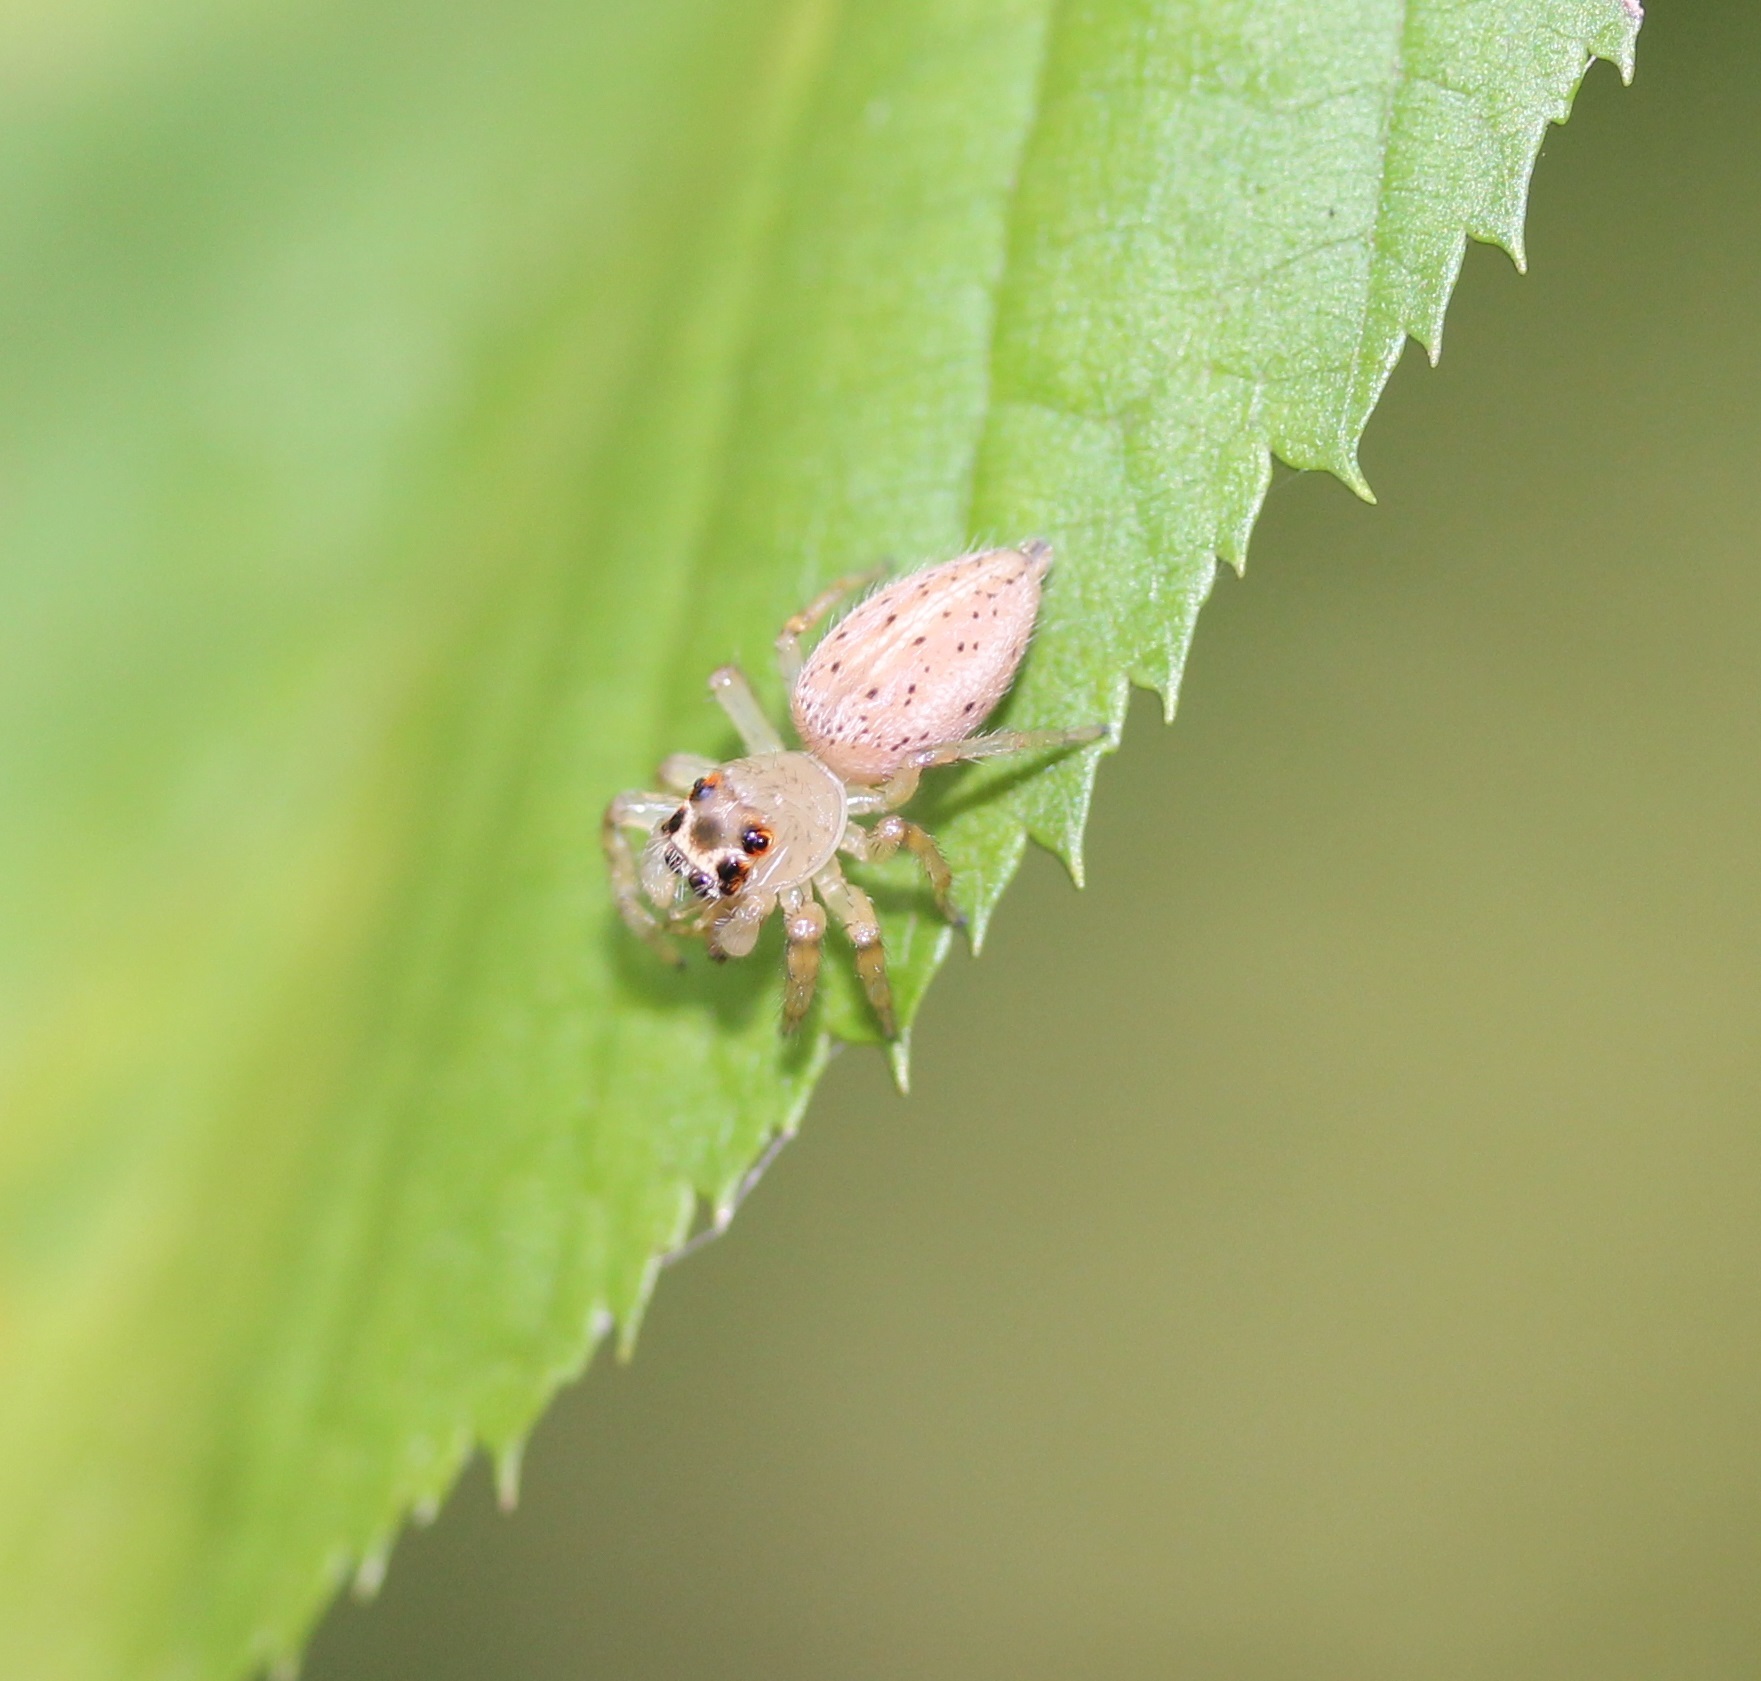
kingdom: Animalia
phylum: Arthropoda
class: Arachnida
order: Araneae
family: Salticidae
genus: Colonus
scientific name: Colonus sylvanus
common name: Jumping spiders
